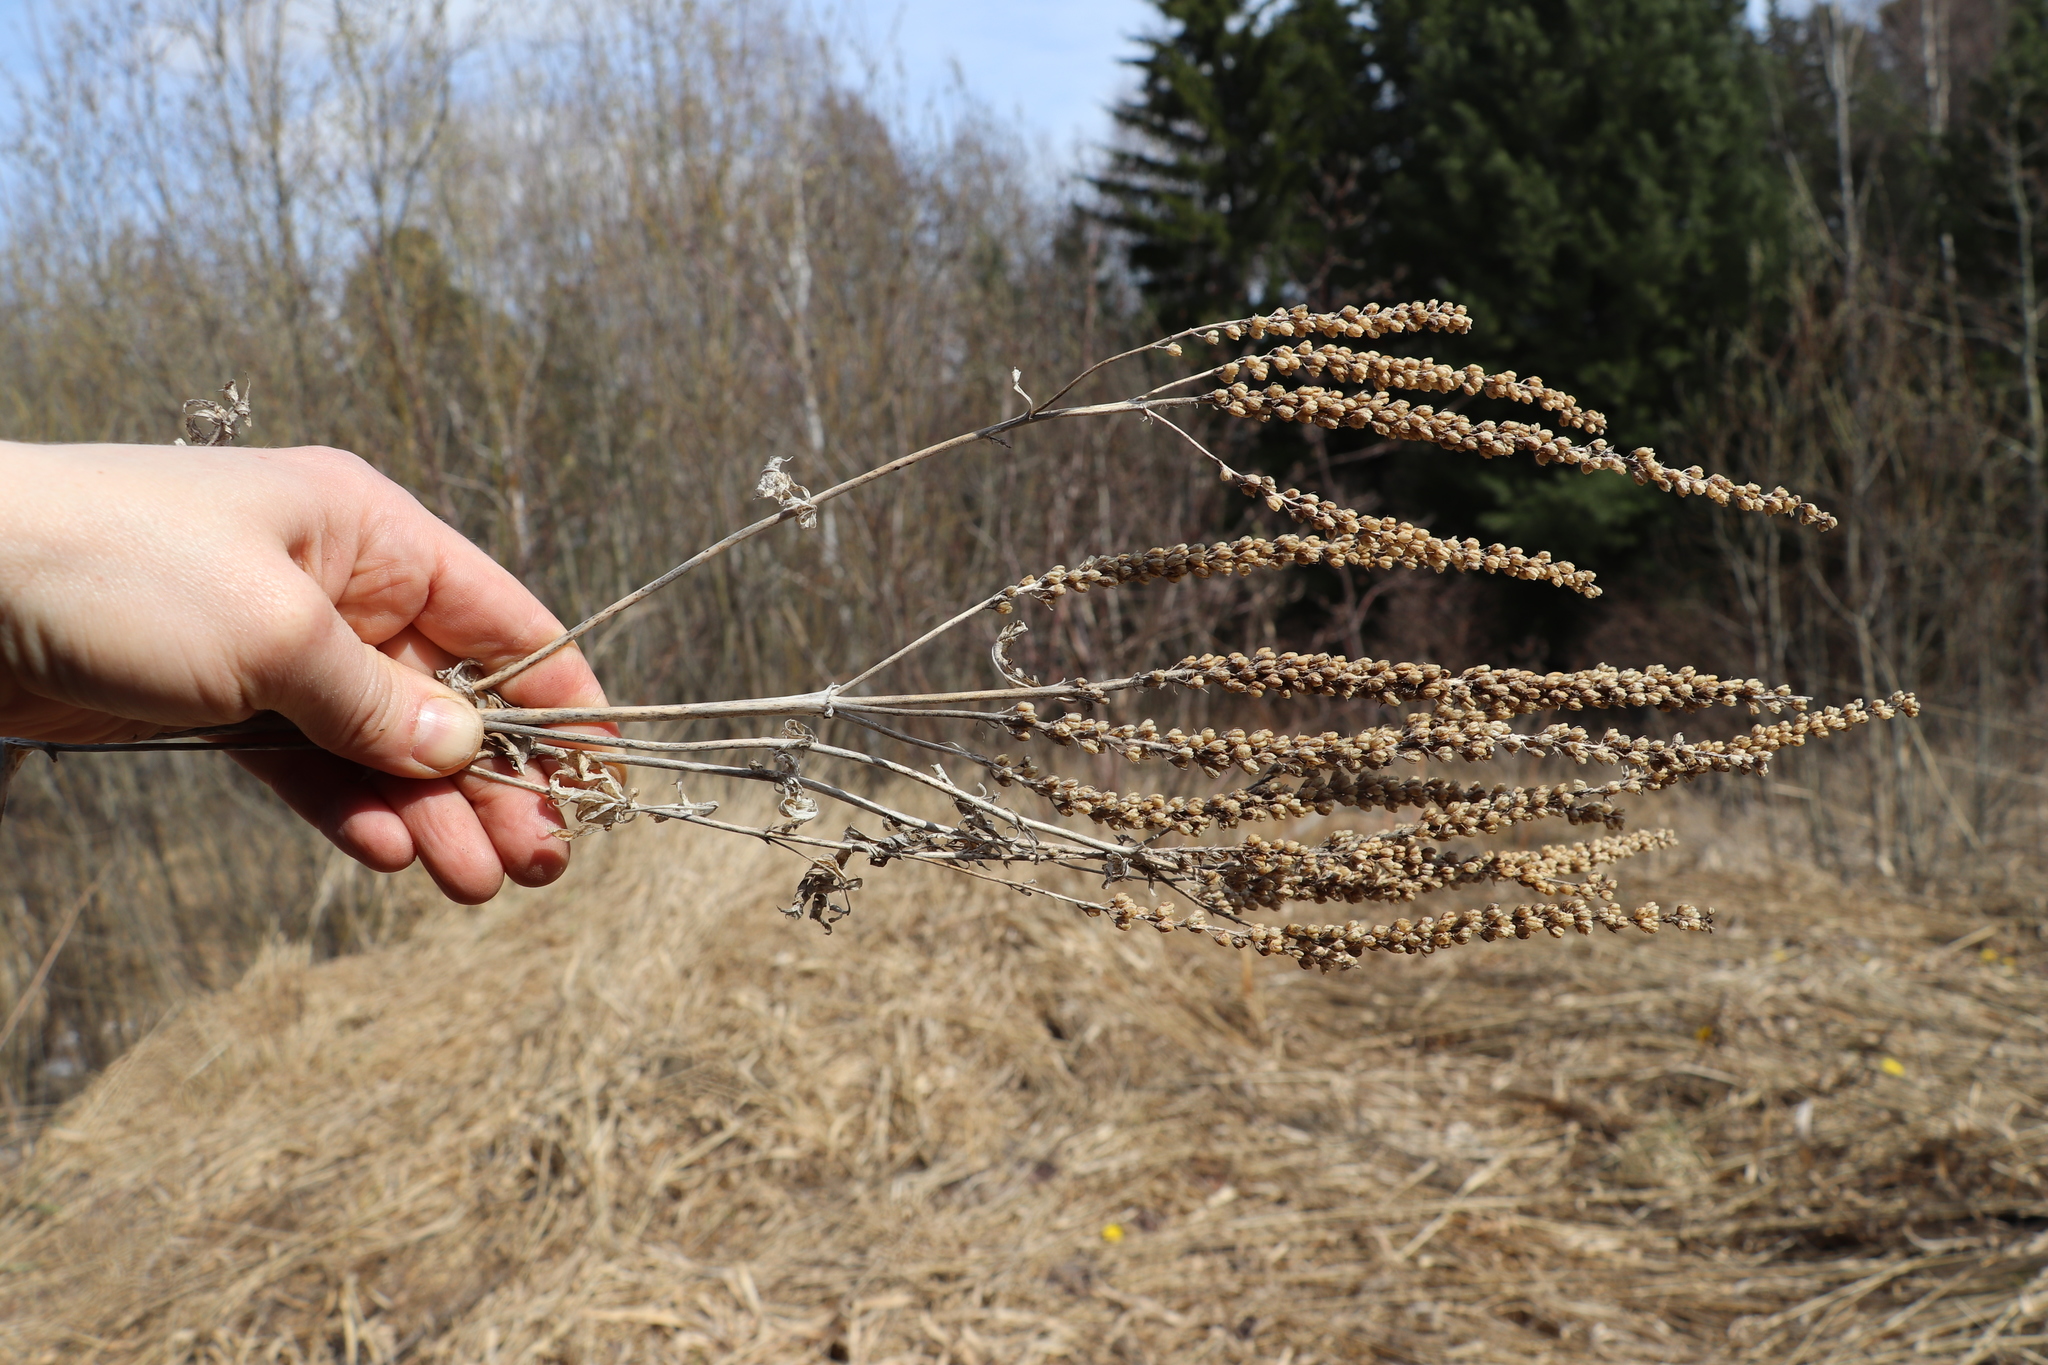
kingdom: Plantae
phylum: Tracheophyta
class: Magnoliopsida
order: Lamiales
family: Plantaginaceae
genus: Veronica
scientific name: Veronica longifolia
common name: Garden speedwell
